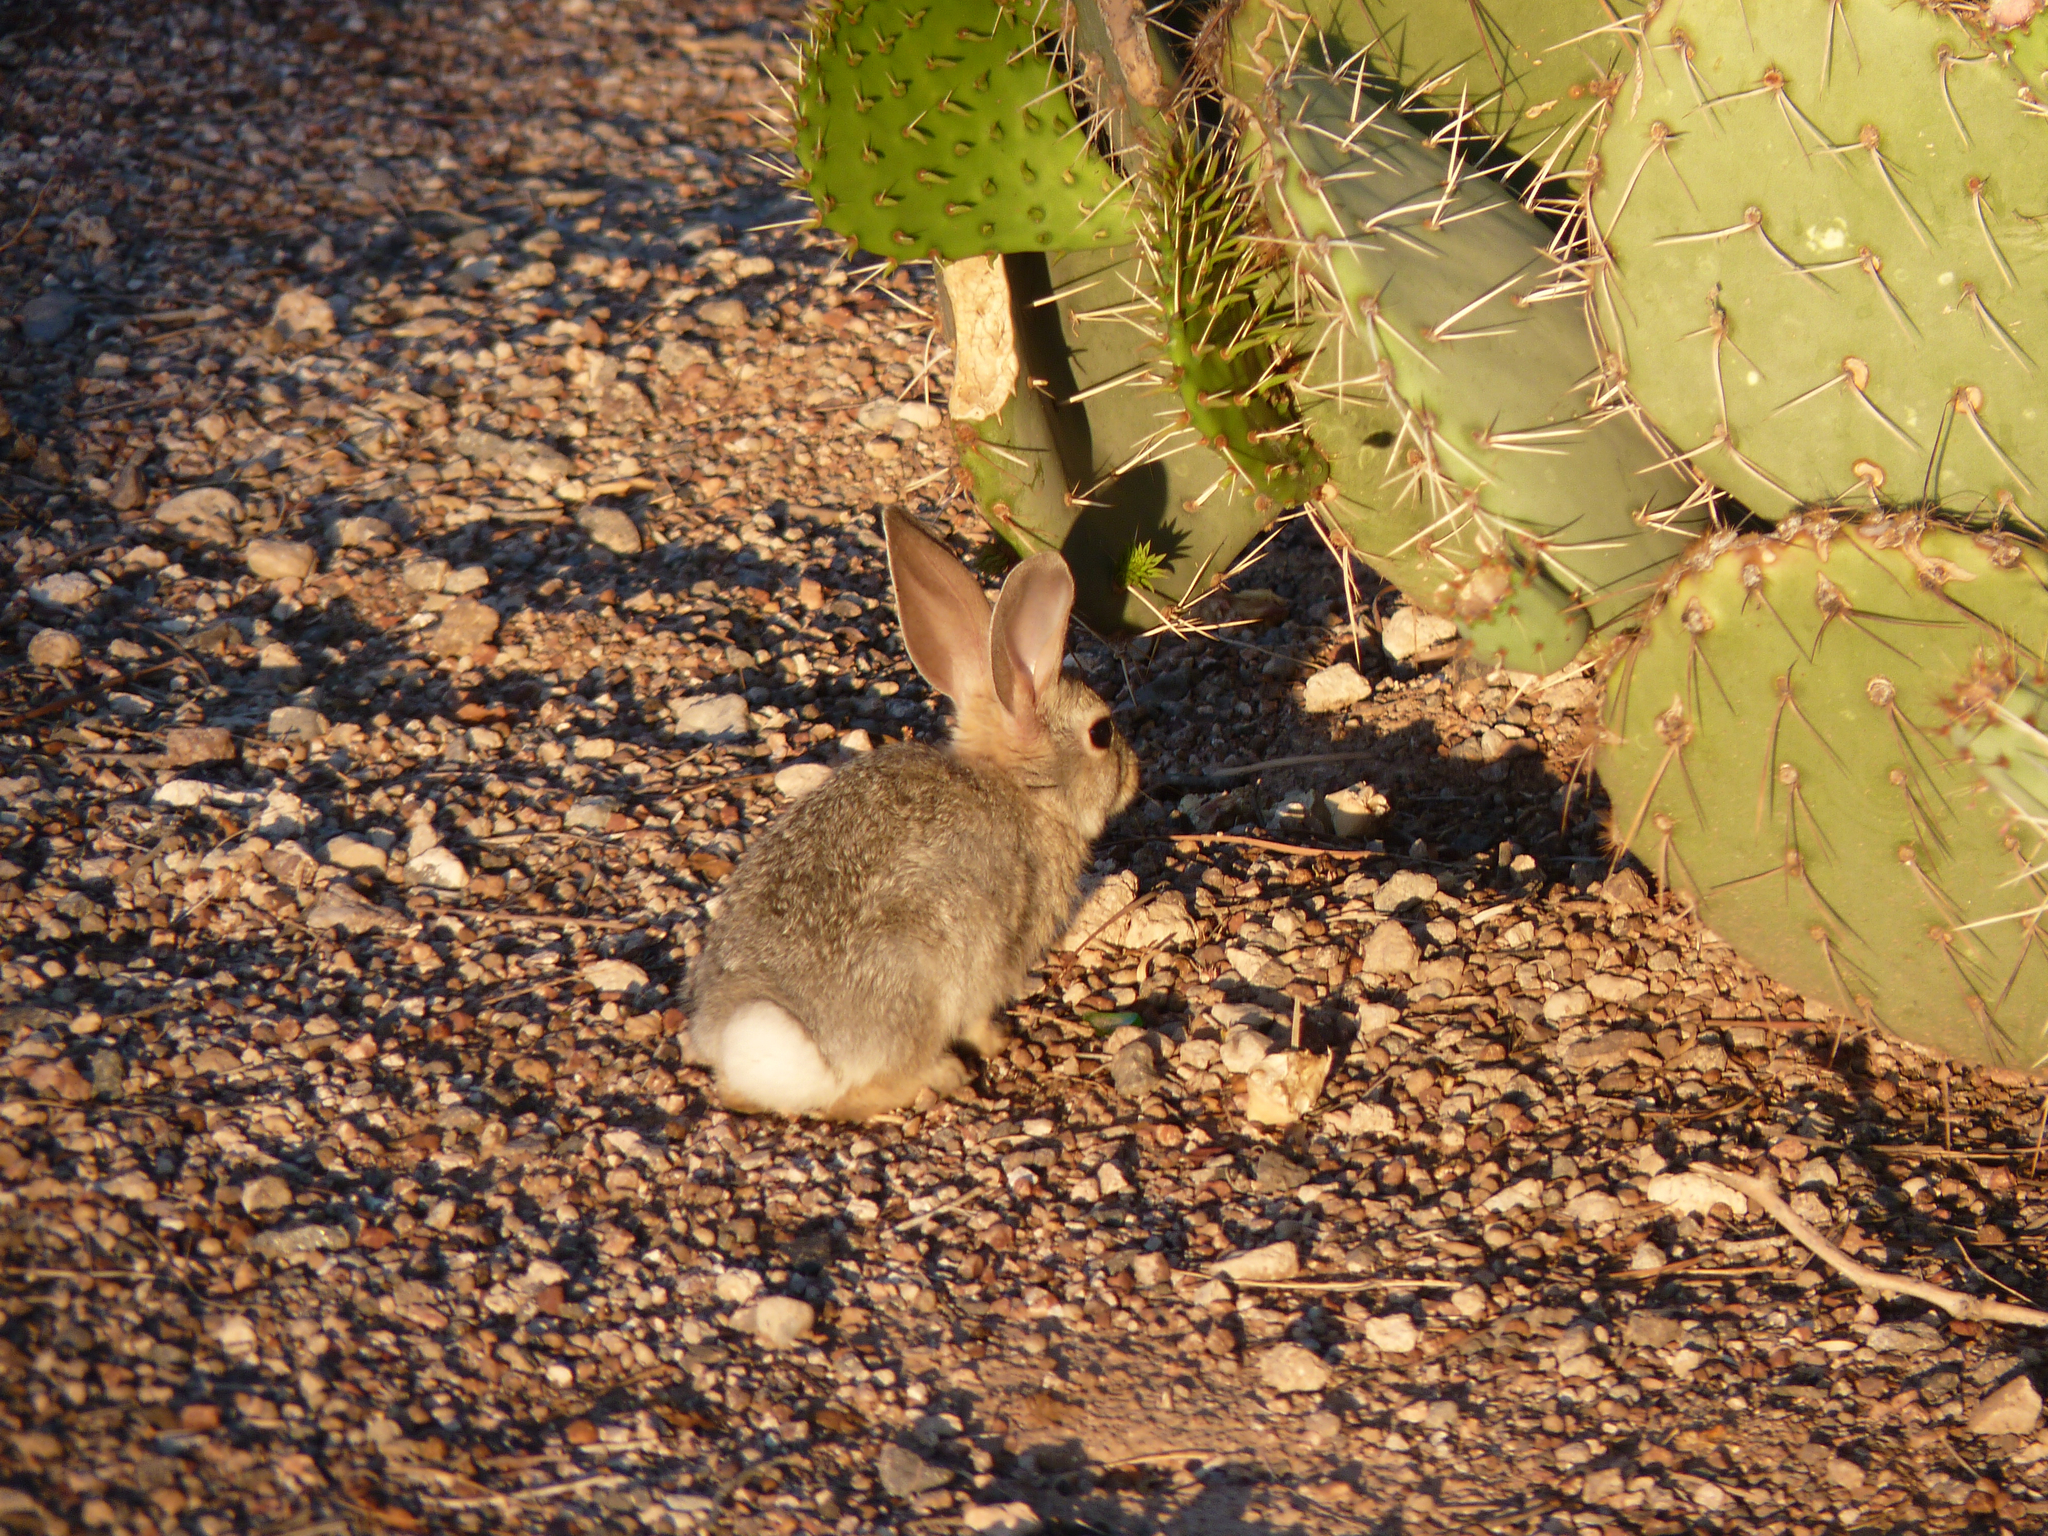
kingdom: Animalia
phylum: Chordata
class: Mammalia
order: Lagomorpha
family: Leporidae
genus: Sylvilagus
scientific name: Sylvilagus audubonii
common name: Desert cottontail
